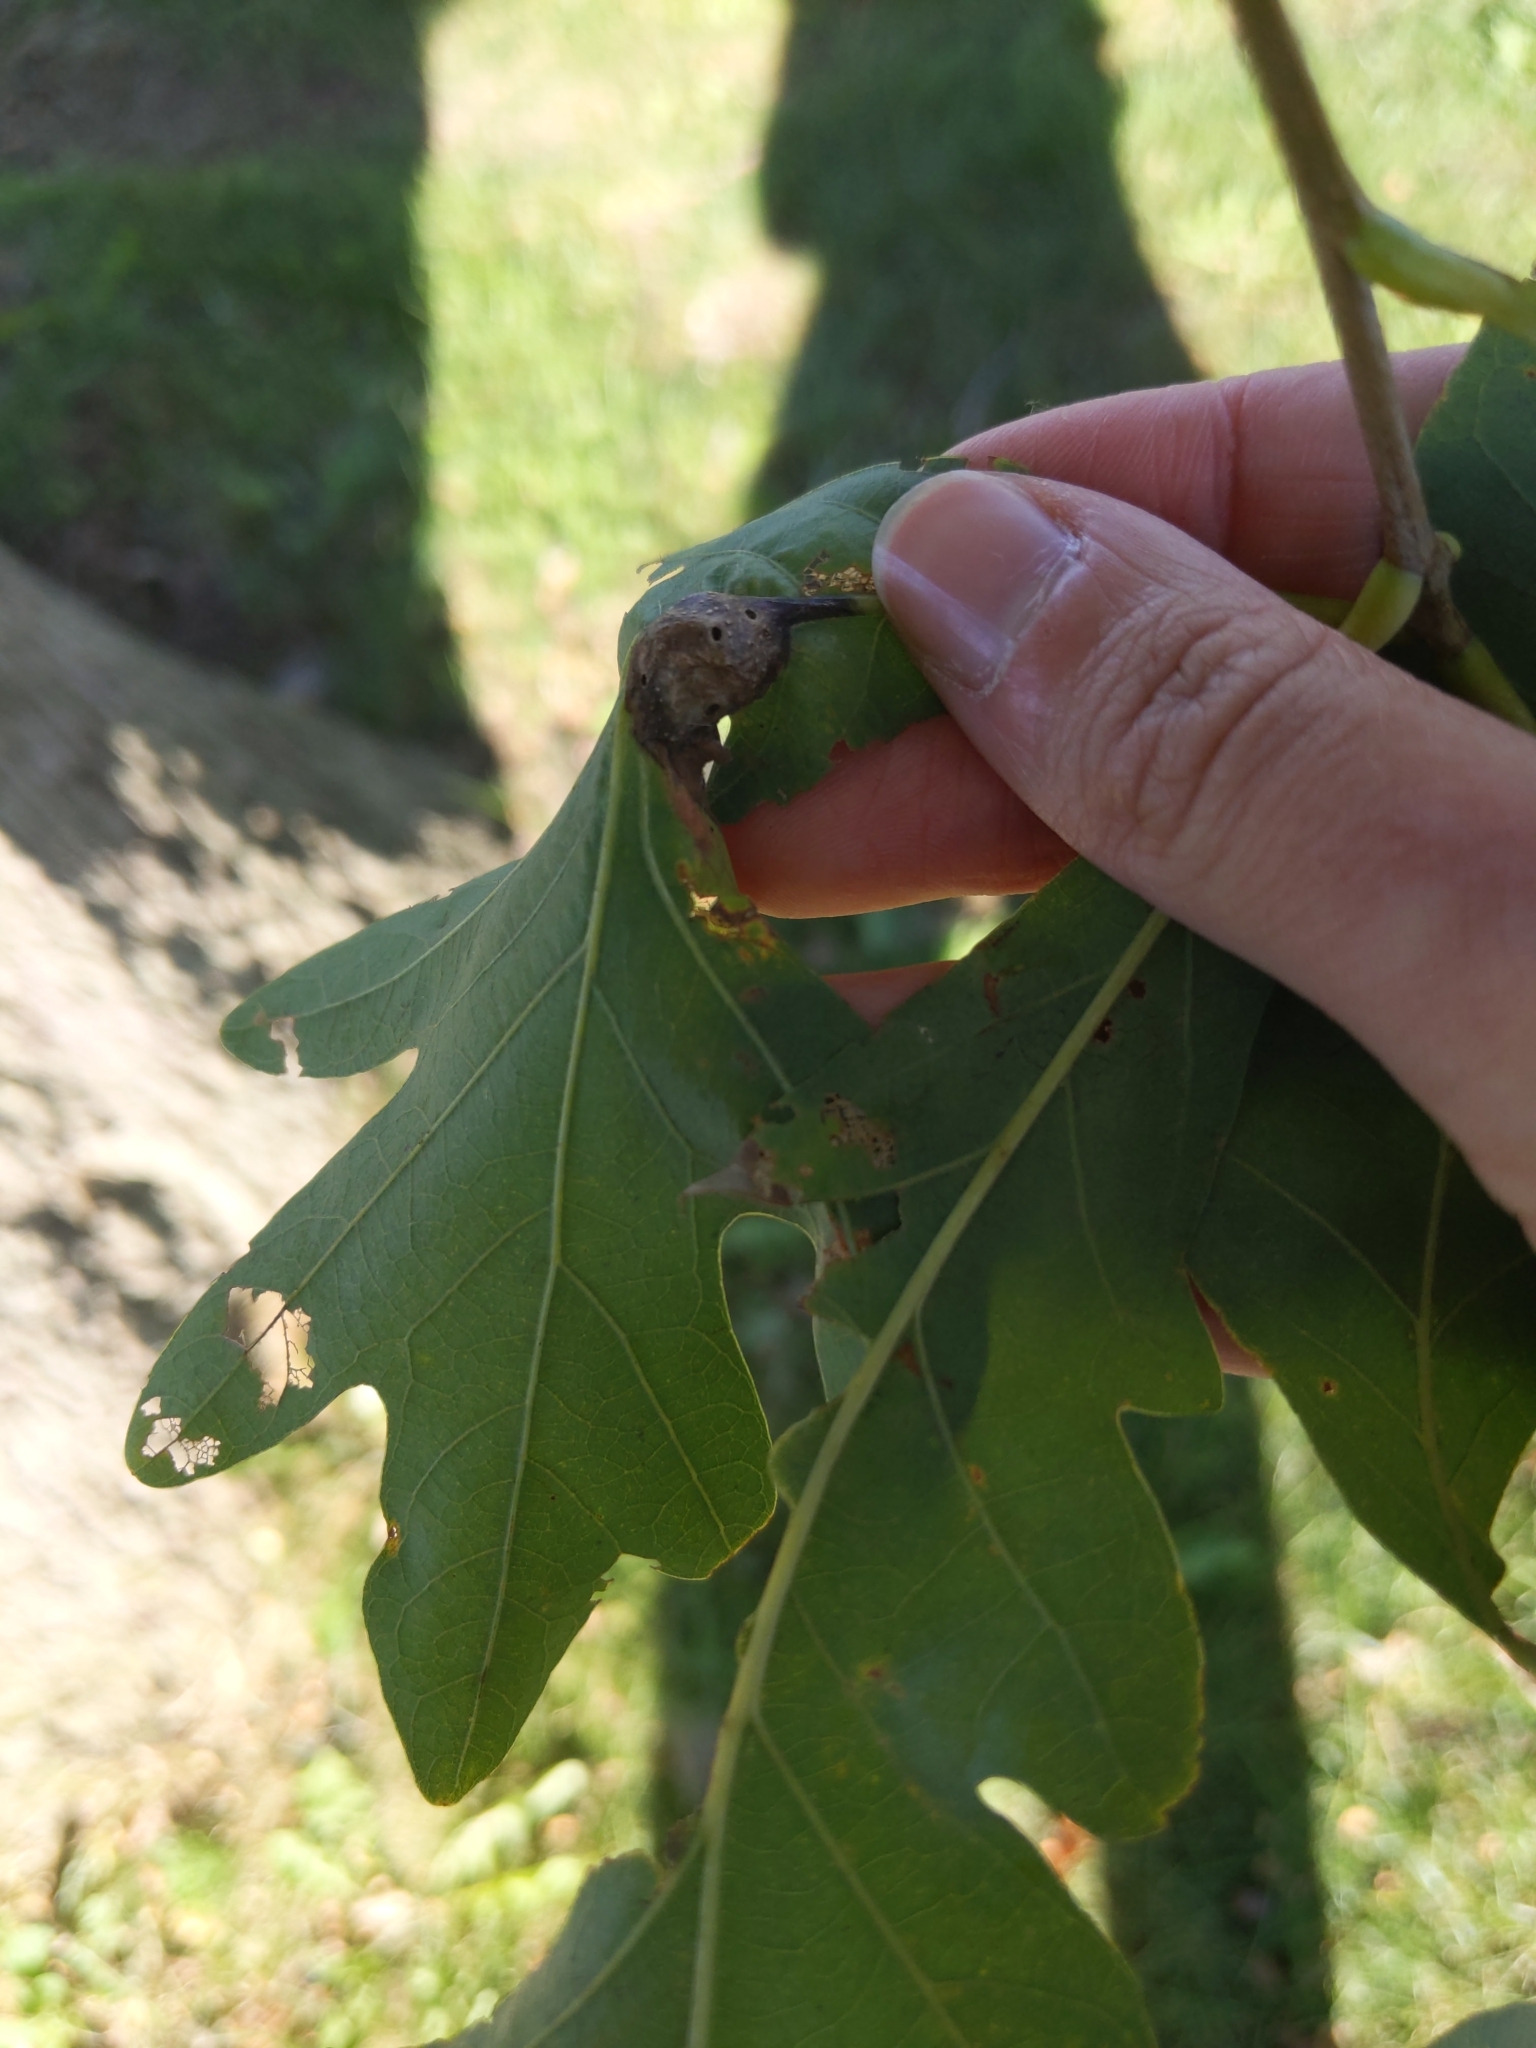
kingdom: Animalia
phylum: Arthropoda
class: Insecta
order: Hymenoptera
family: Cynipidae
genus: Andricus
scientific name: Andricus
